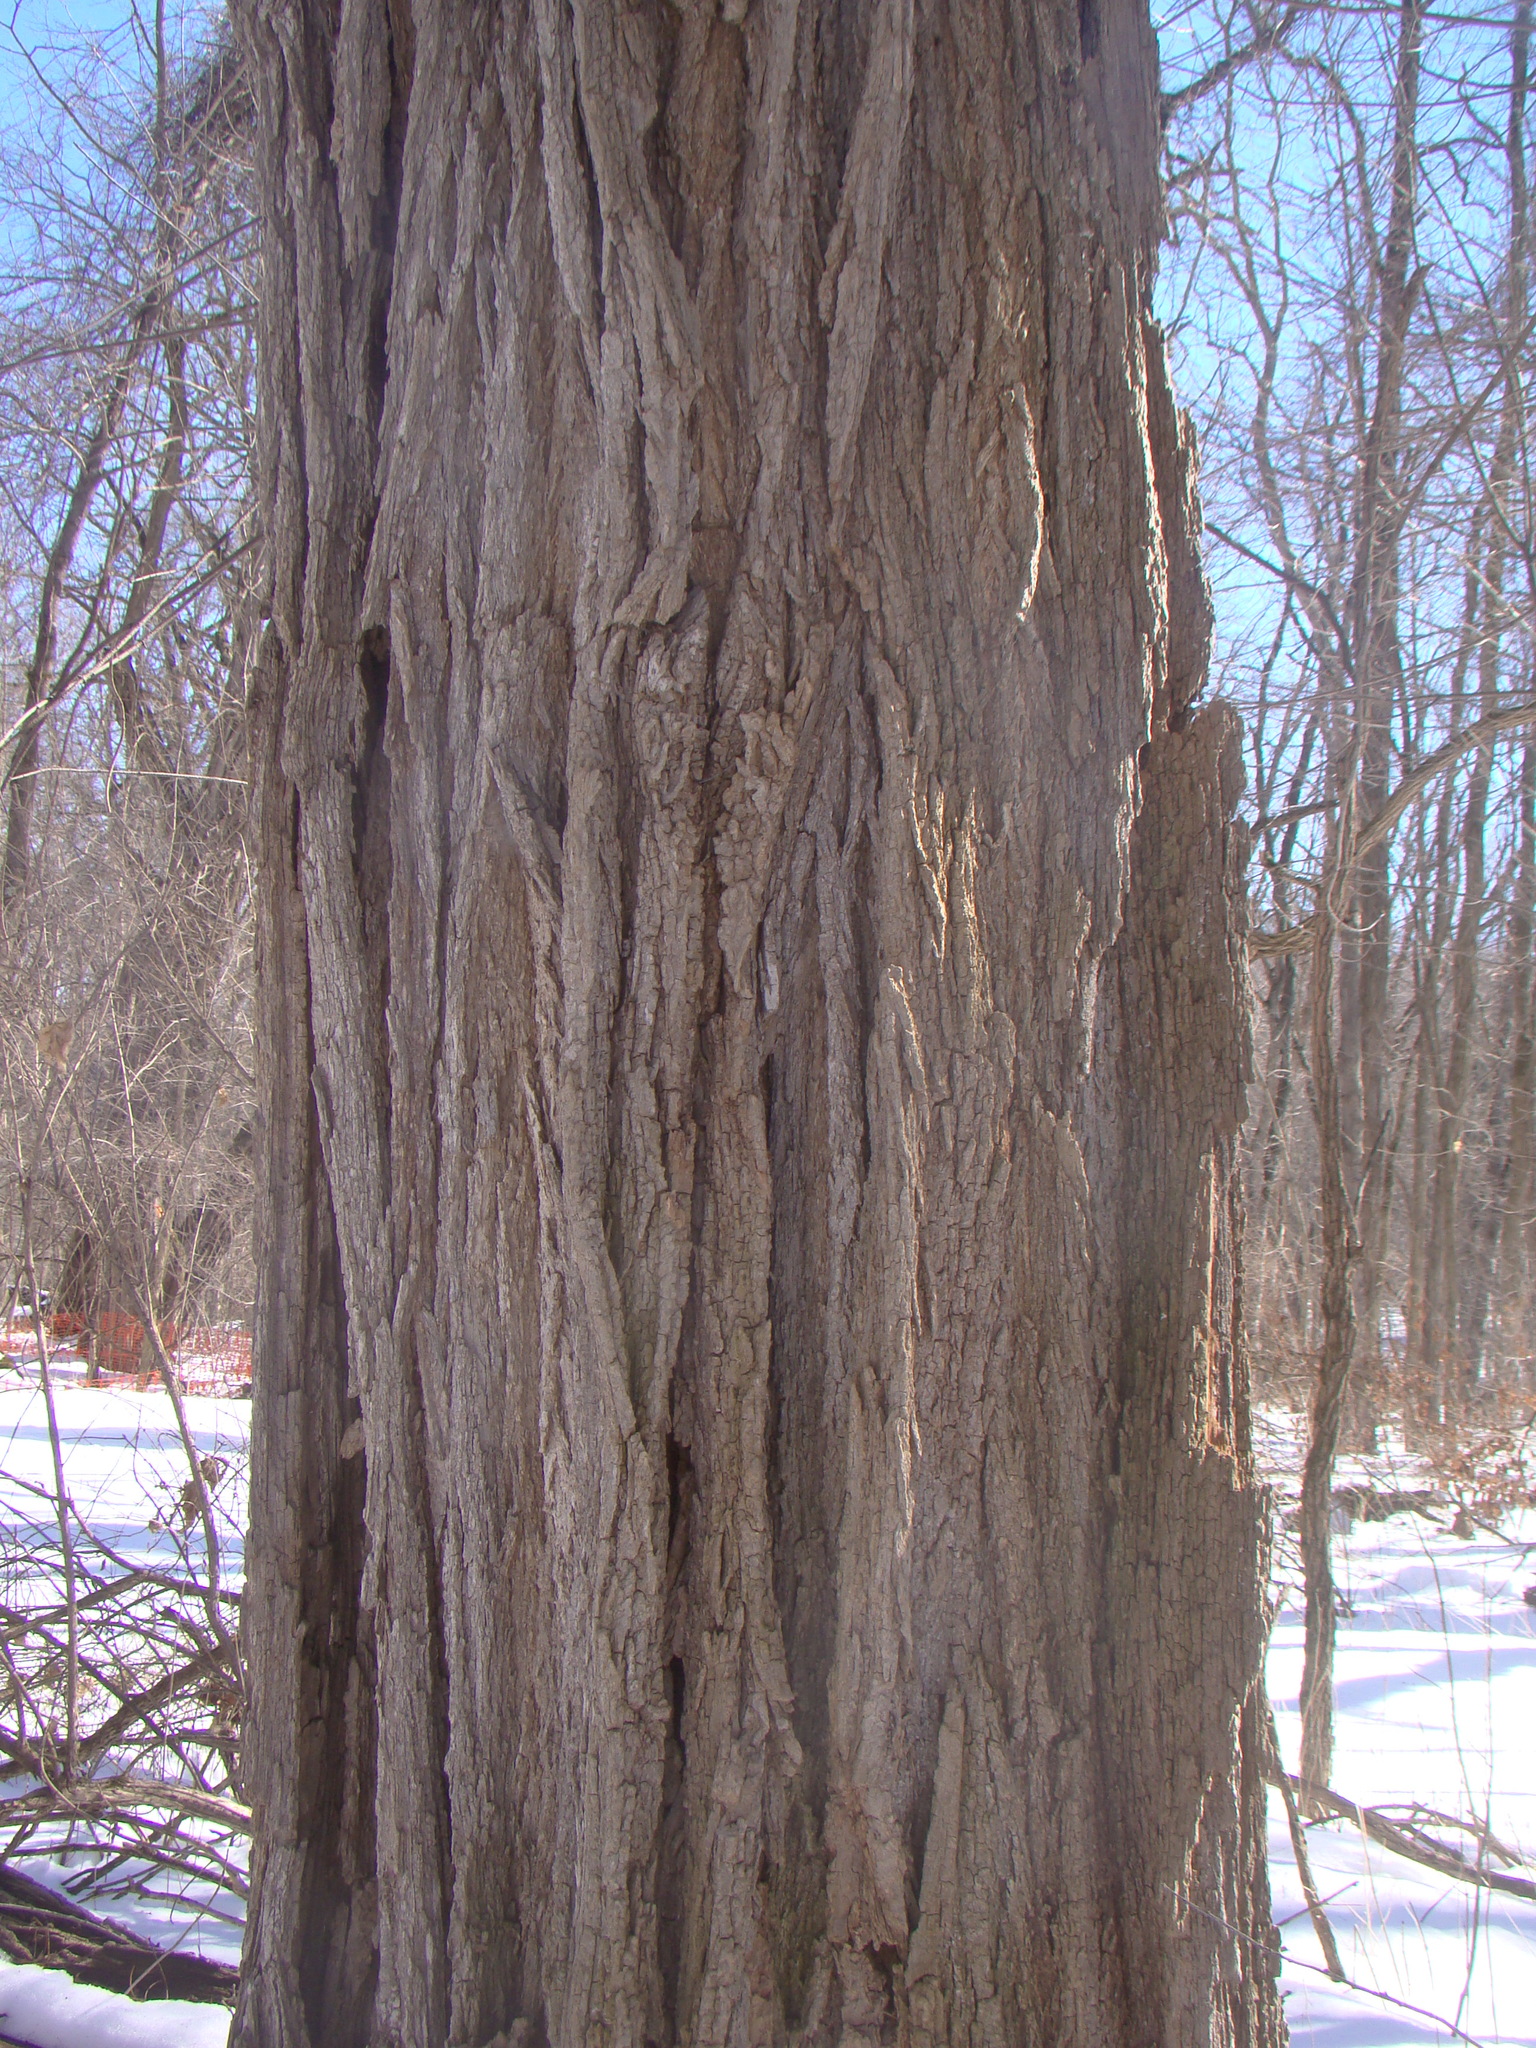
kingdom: Plantae
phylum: Tracheophyta
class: Magnoliopsida
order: Fabales
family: Fabaceae
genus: Robinia
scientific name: Robinia pseudoacacia
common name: Black locust
